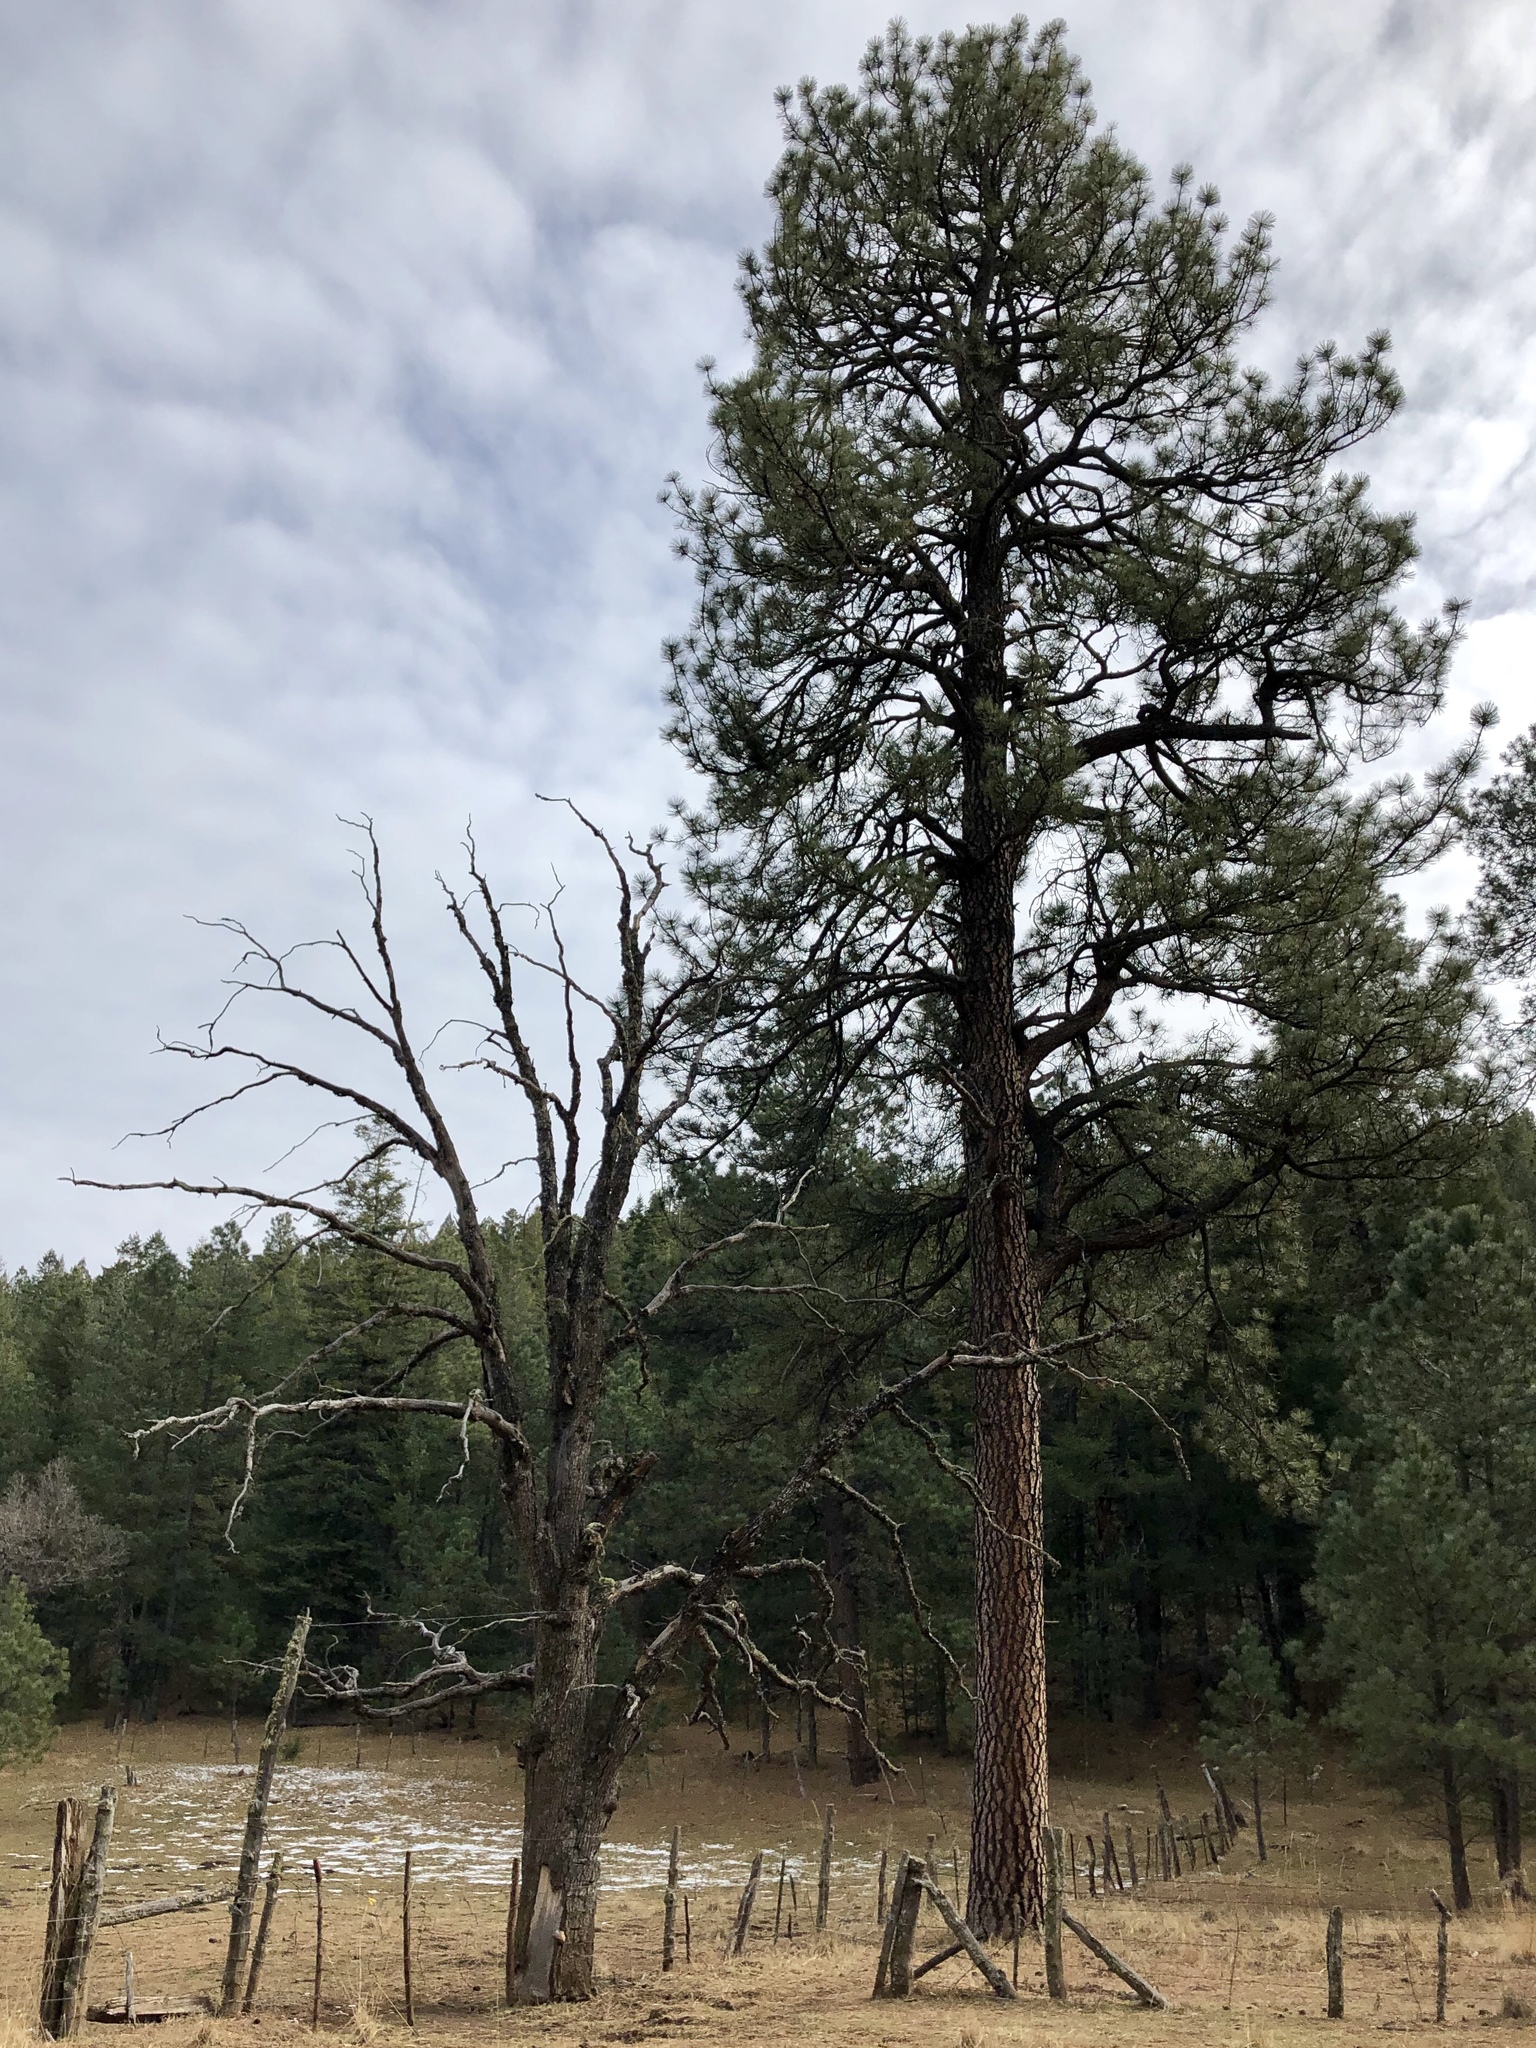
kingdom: Plantae
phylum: Tracheophyta
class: Pinopsida
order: Pinales
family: Pinaceae
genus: Pinus
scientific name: Pinus ponderosa
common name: Western yellow-pine
